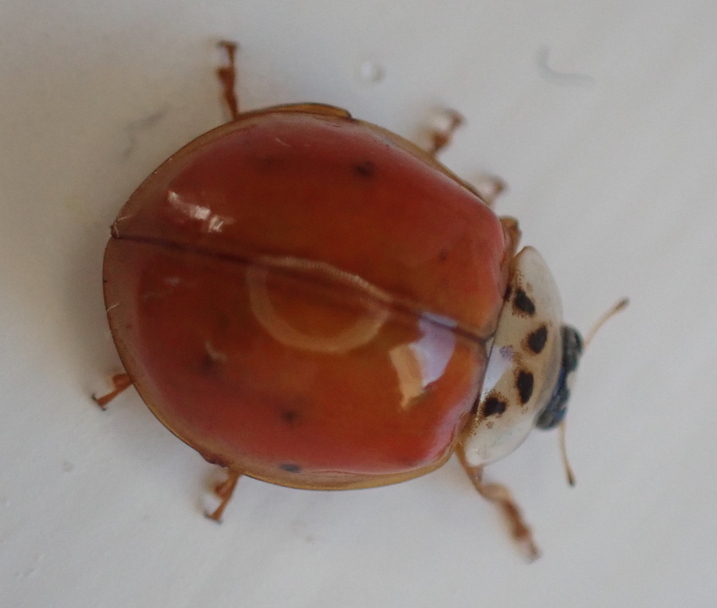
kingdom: Animalia
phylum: Arthropoda
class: Insecta
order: Coleoptera
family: Coccinellidae
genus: Harmonia
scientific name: Harmonia axyridis
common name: Harlequin ladybird
